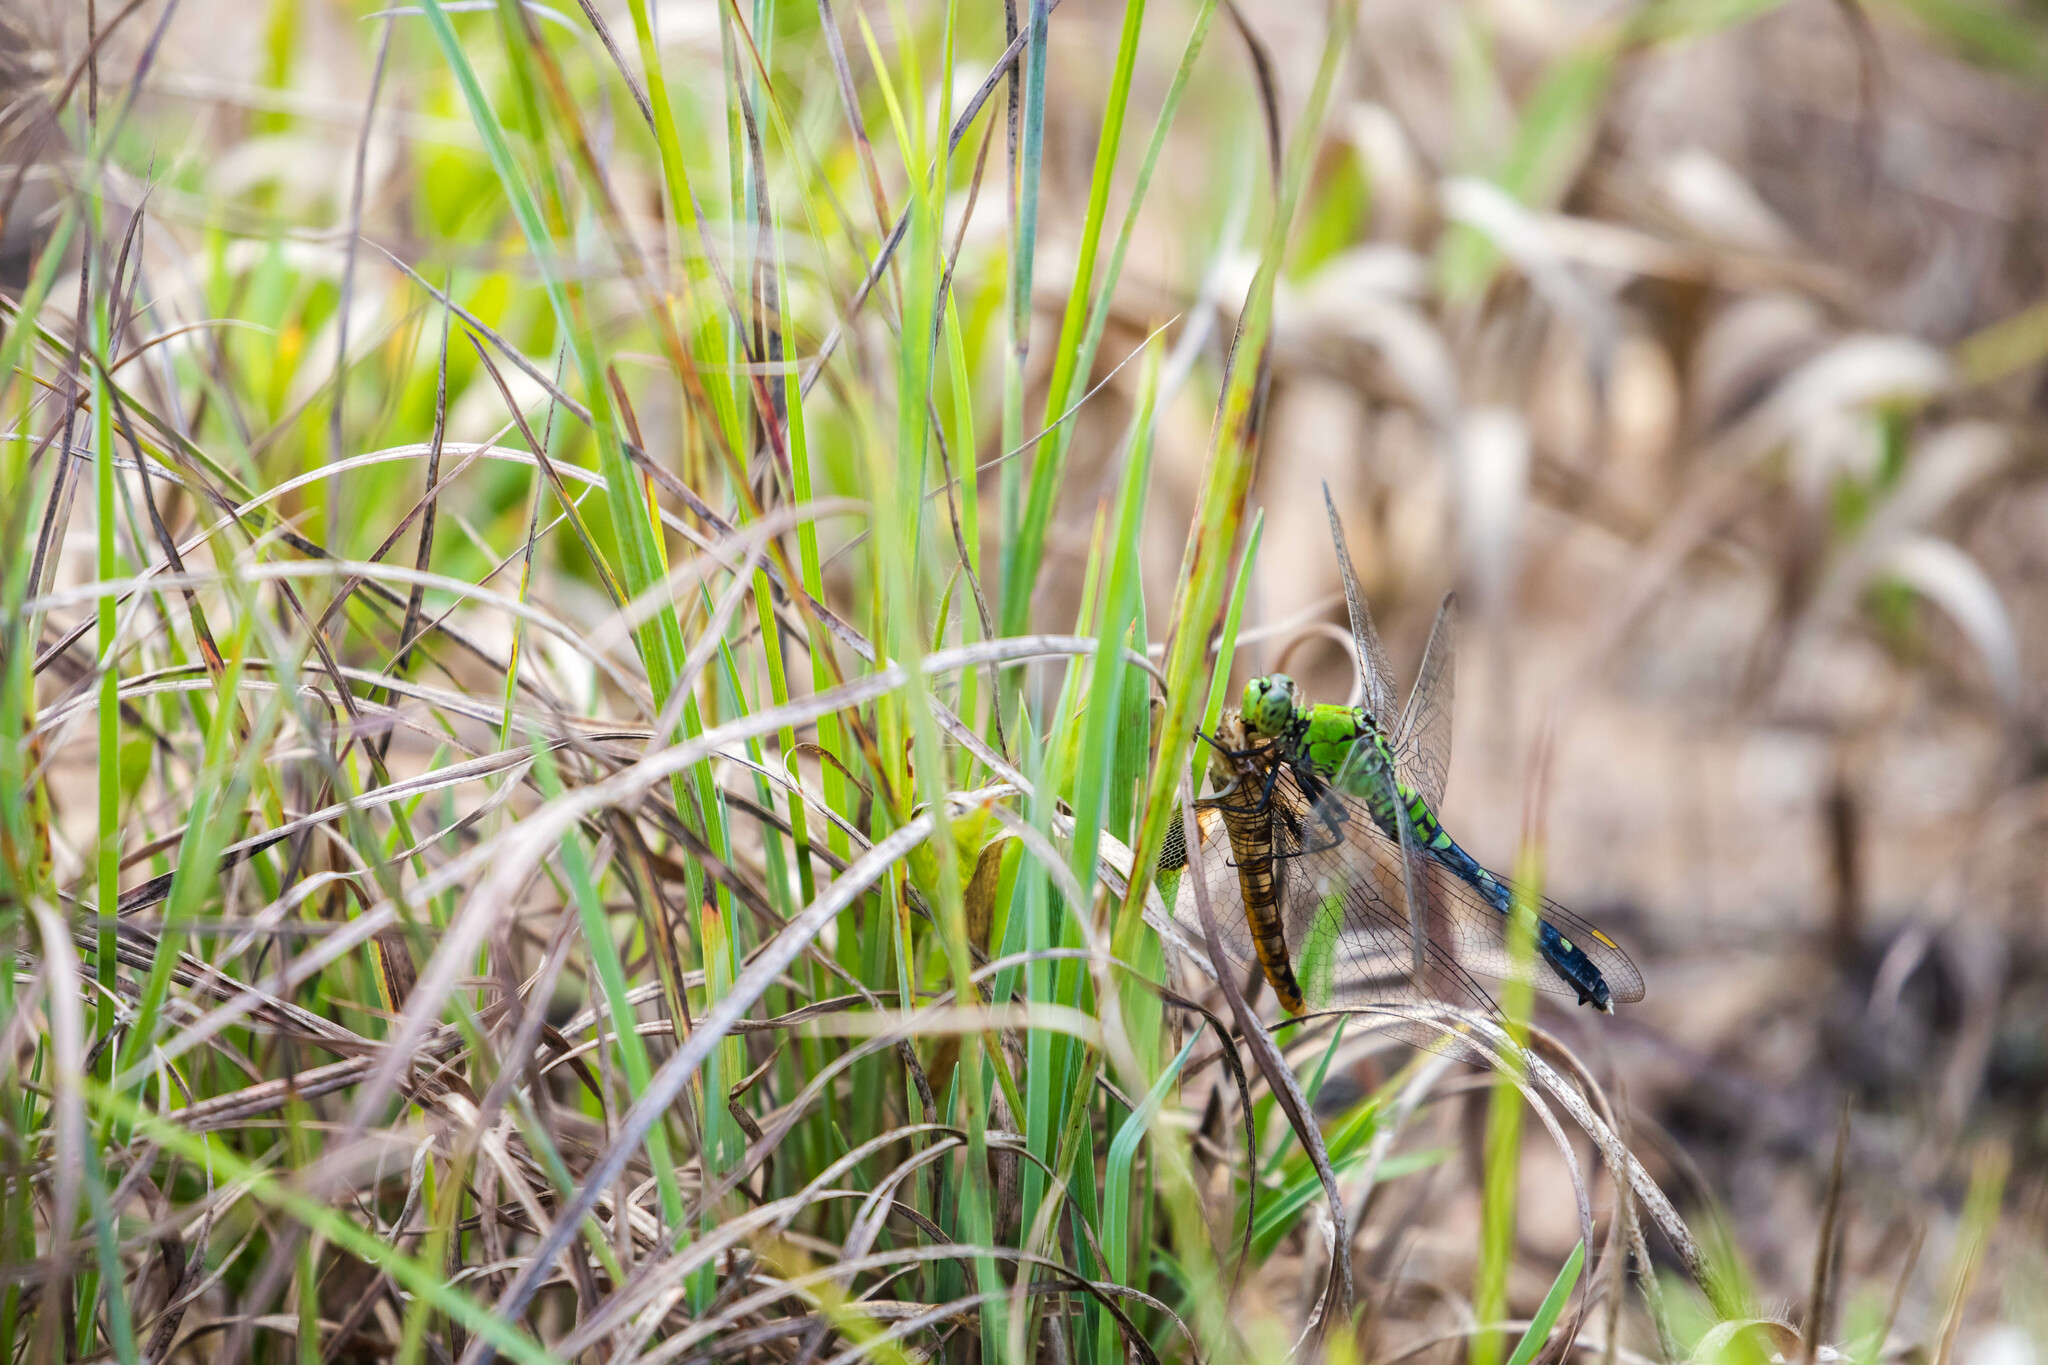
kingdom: Animalia
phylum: Arthropoda
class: Insecta
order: Odonata
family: Libellulidae
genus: Erythemis
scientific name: Erythemis simplicicollis
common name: Eastern pondhawk
